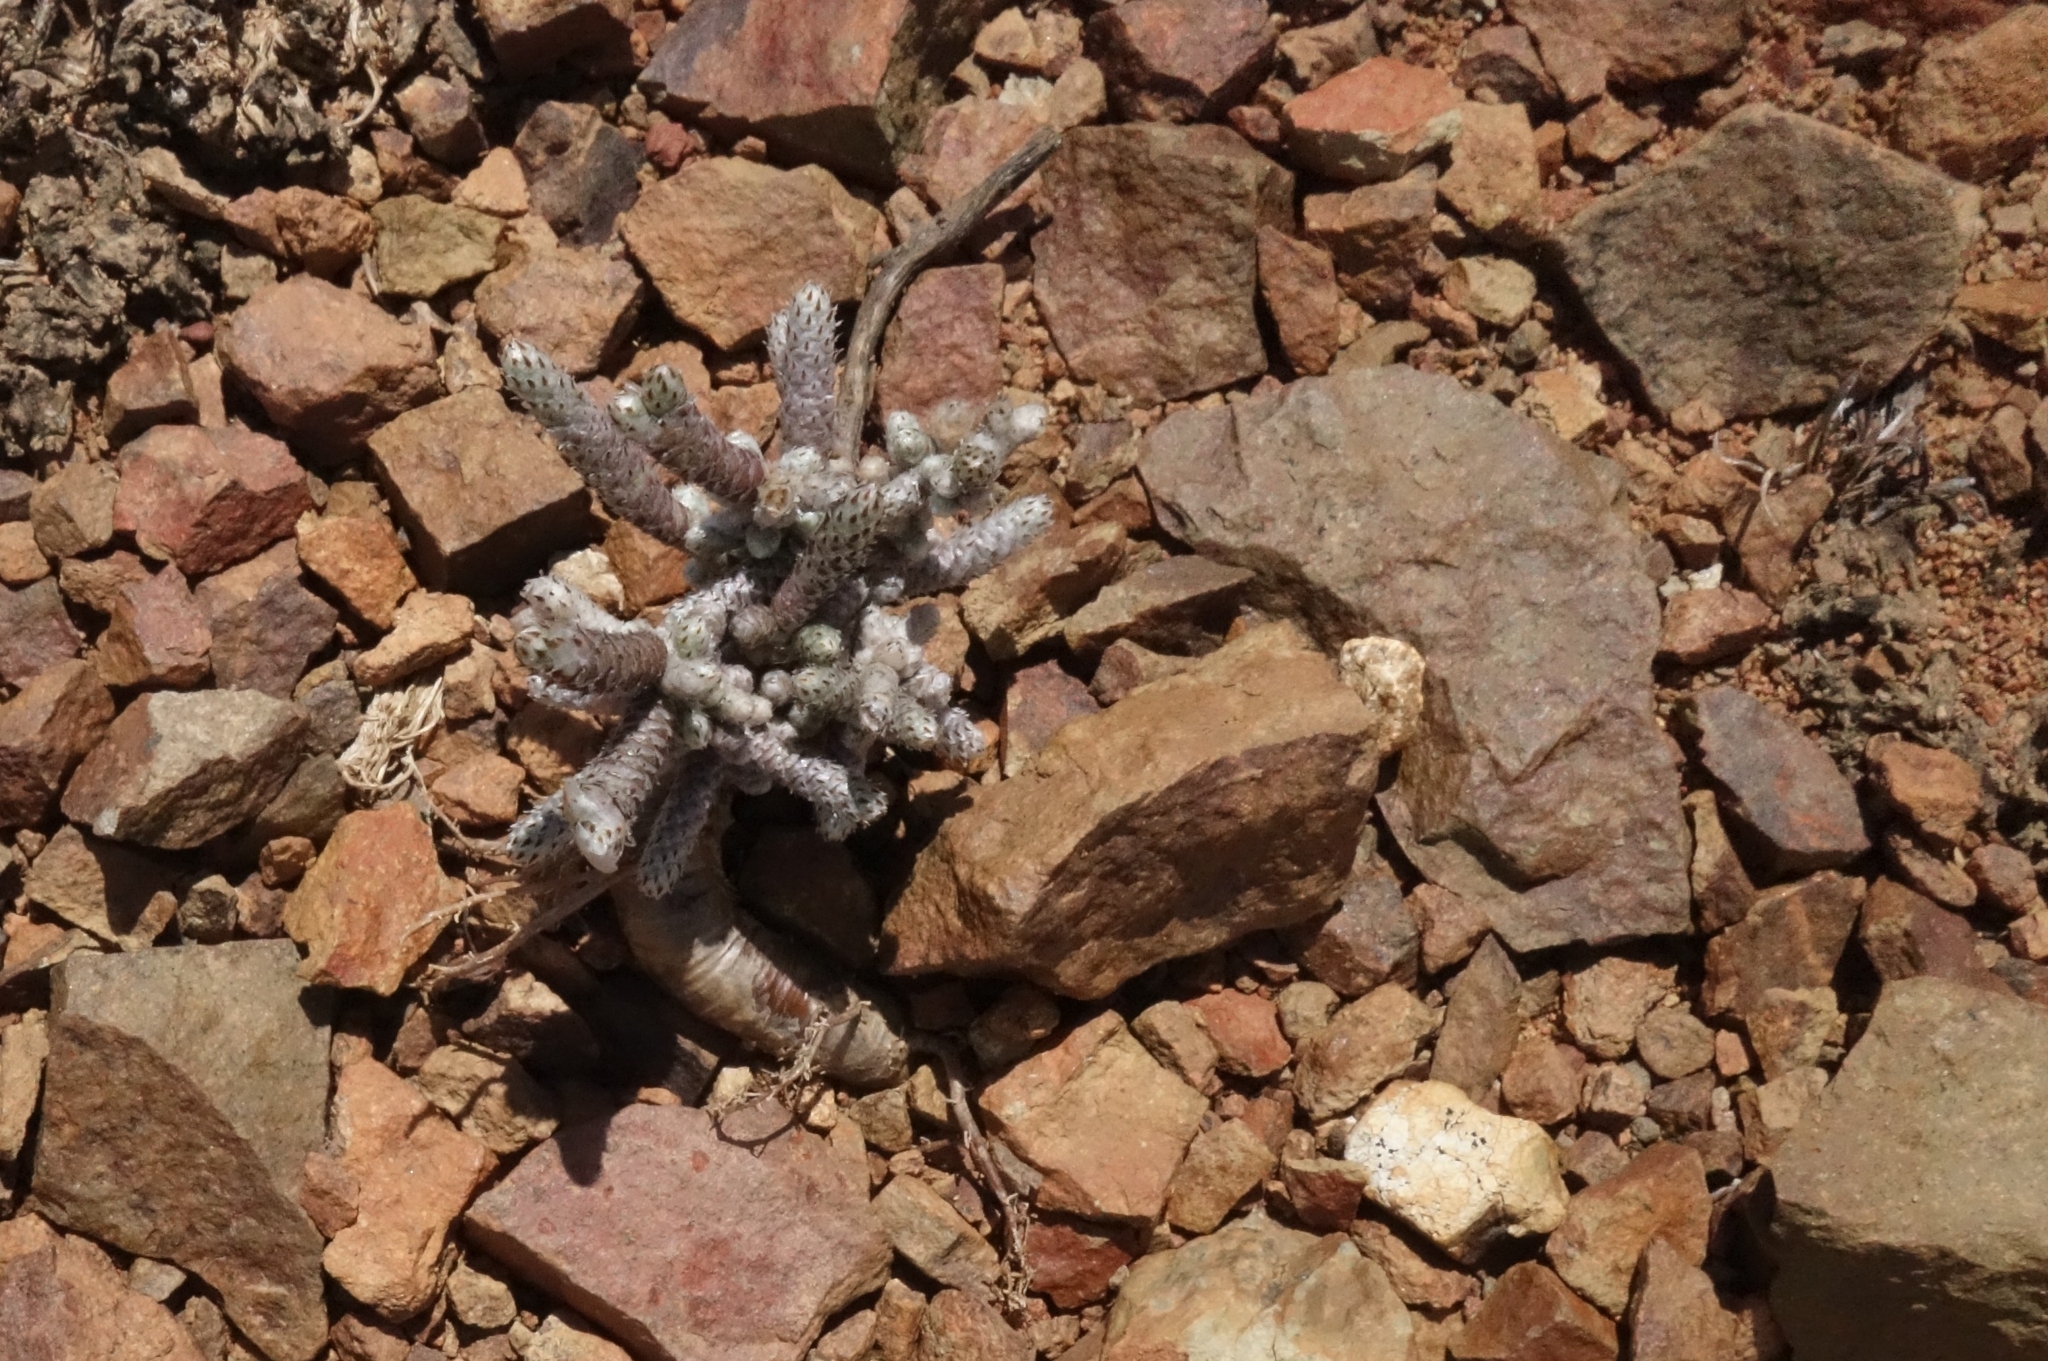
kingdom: Plantae
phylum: Tracheophyta
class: Magnoliopsida
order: Caryophyllales
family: Anacampserotaceae
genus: Avonia
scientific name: Avonia ustulata
